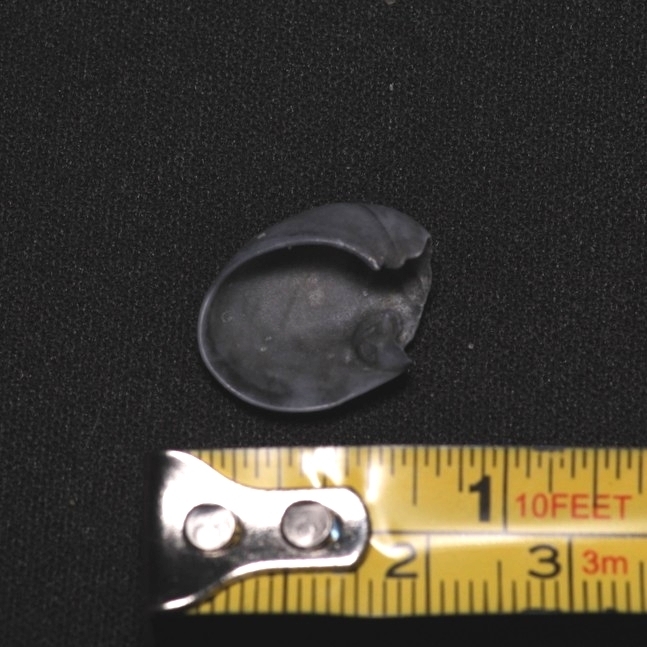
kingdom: Animalia
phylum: Mollusca
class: Gastropoda
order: Littorinimorpha
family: Naticidae
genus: Sinum
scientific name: Sinum perspectivum
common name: White baby ear
